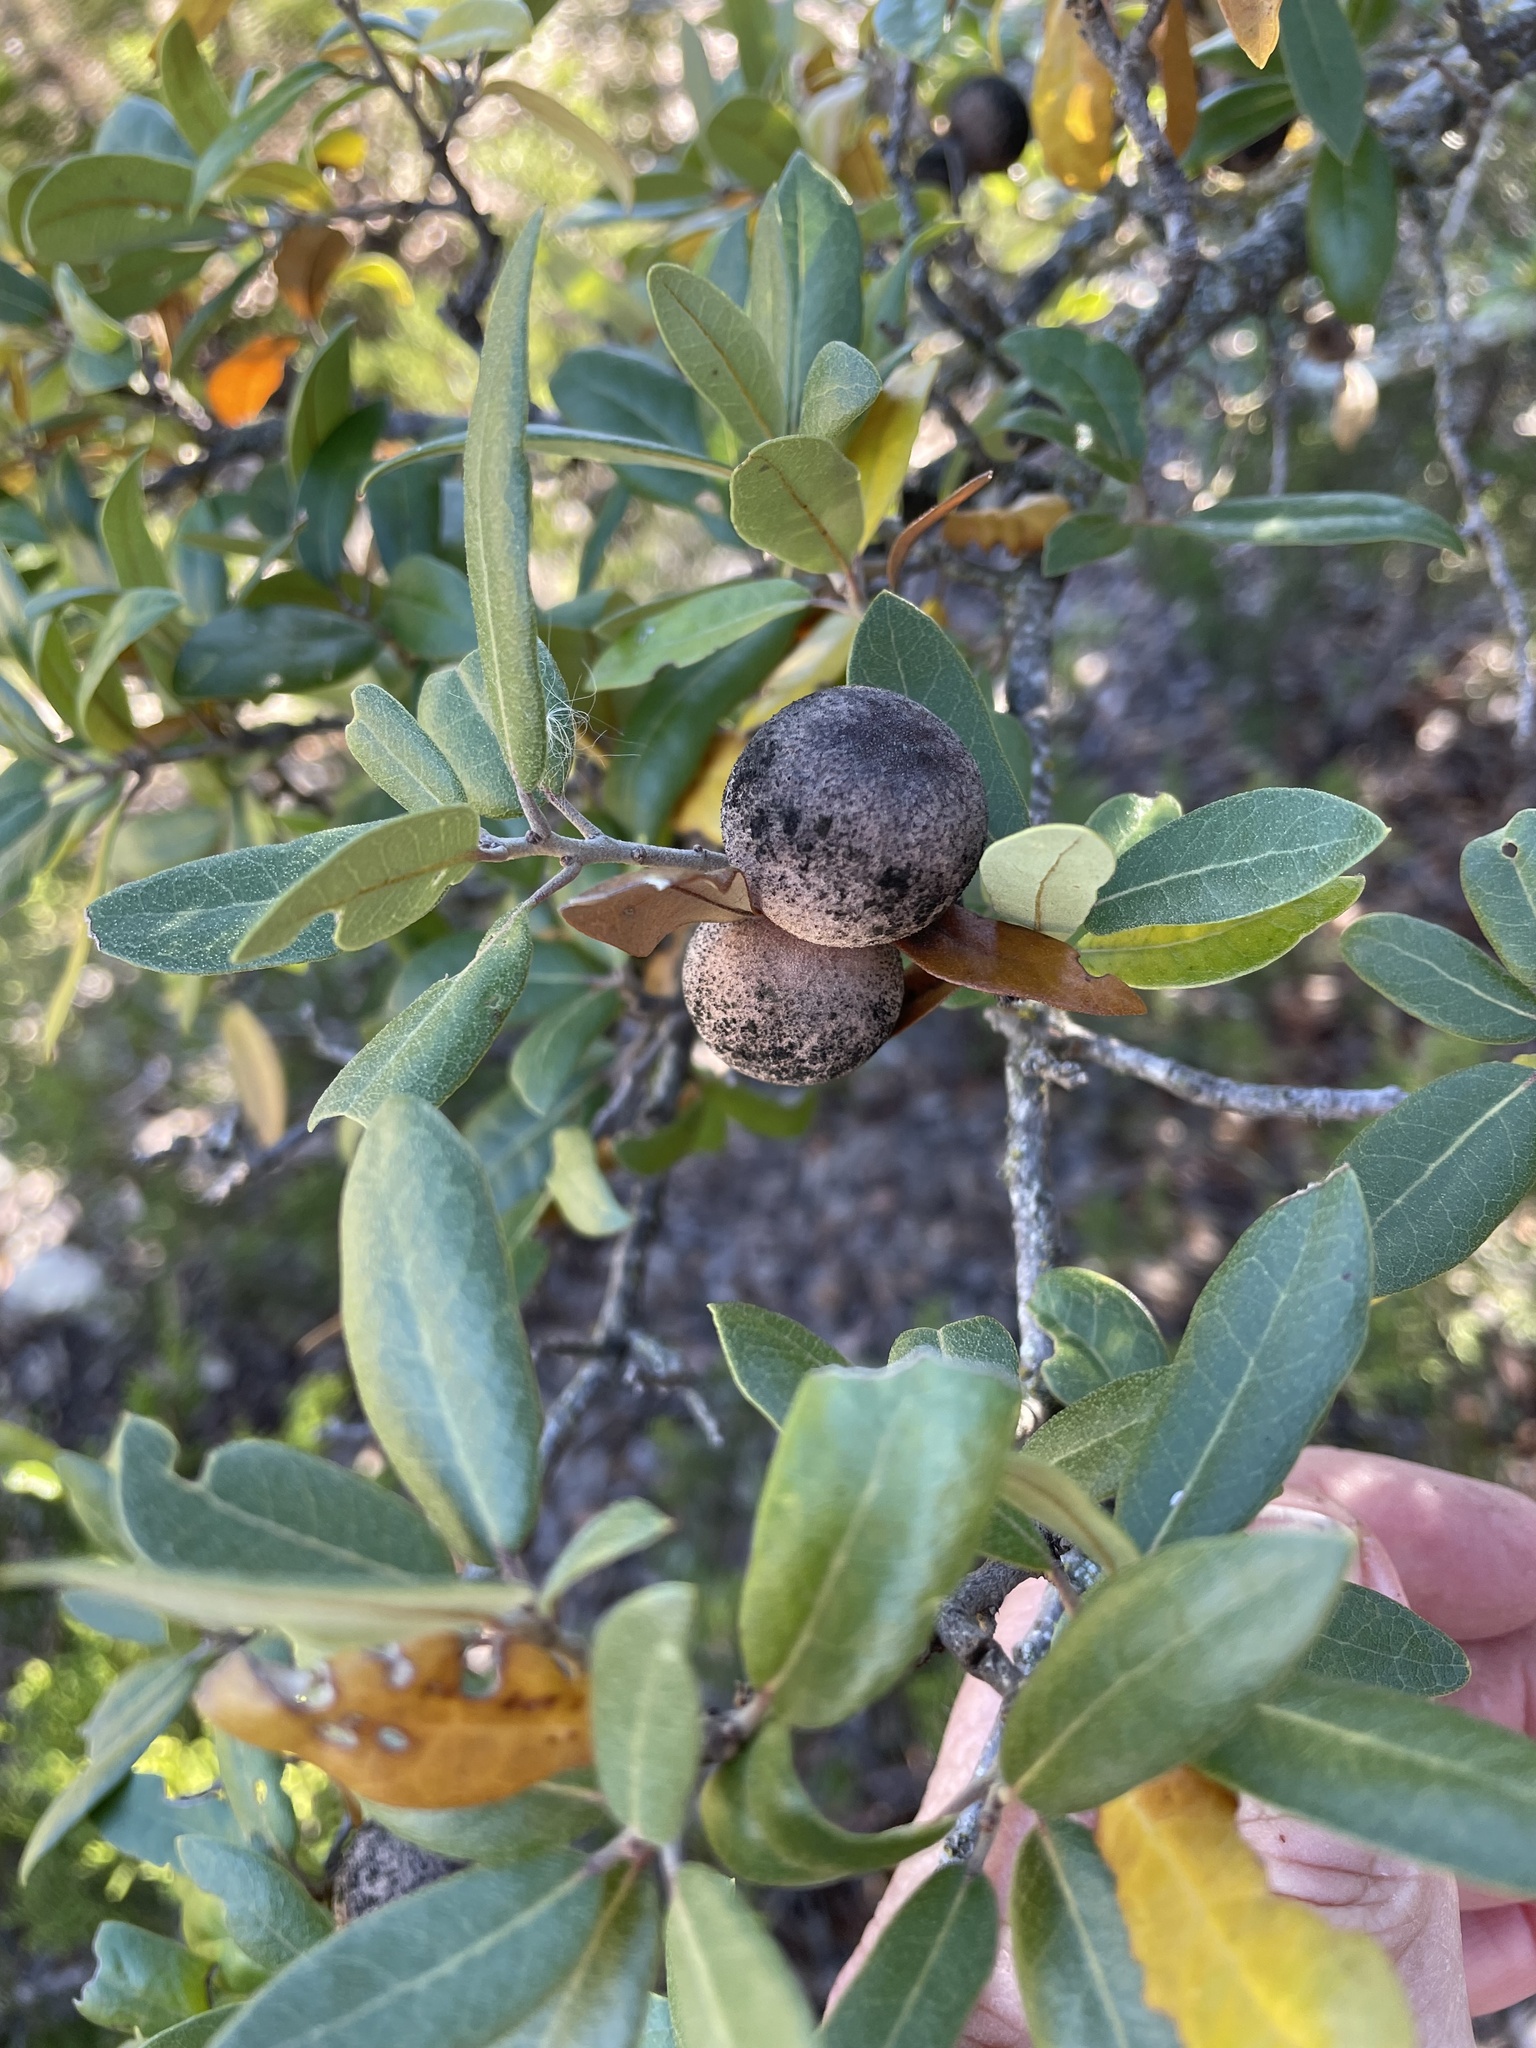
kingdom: Animalia
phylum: Arthropoda
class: Insecta
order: Hymenoptera
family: Cynipidae
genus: Disholcaspis
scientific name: Disholcaspis
